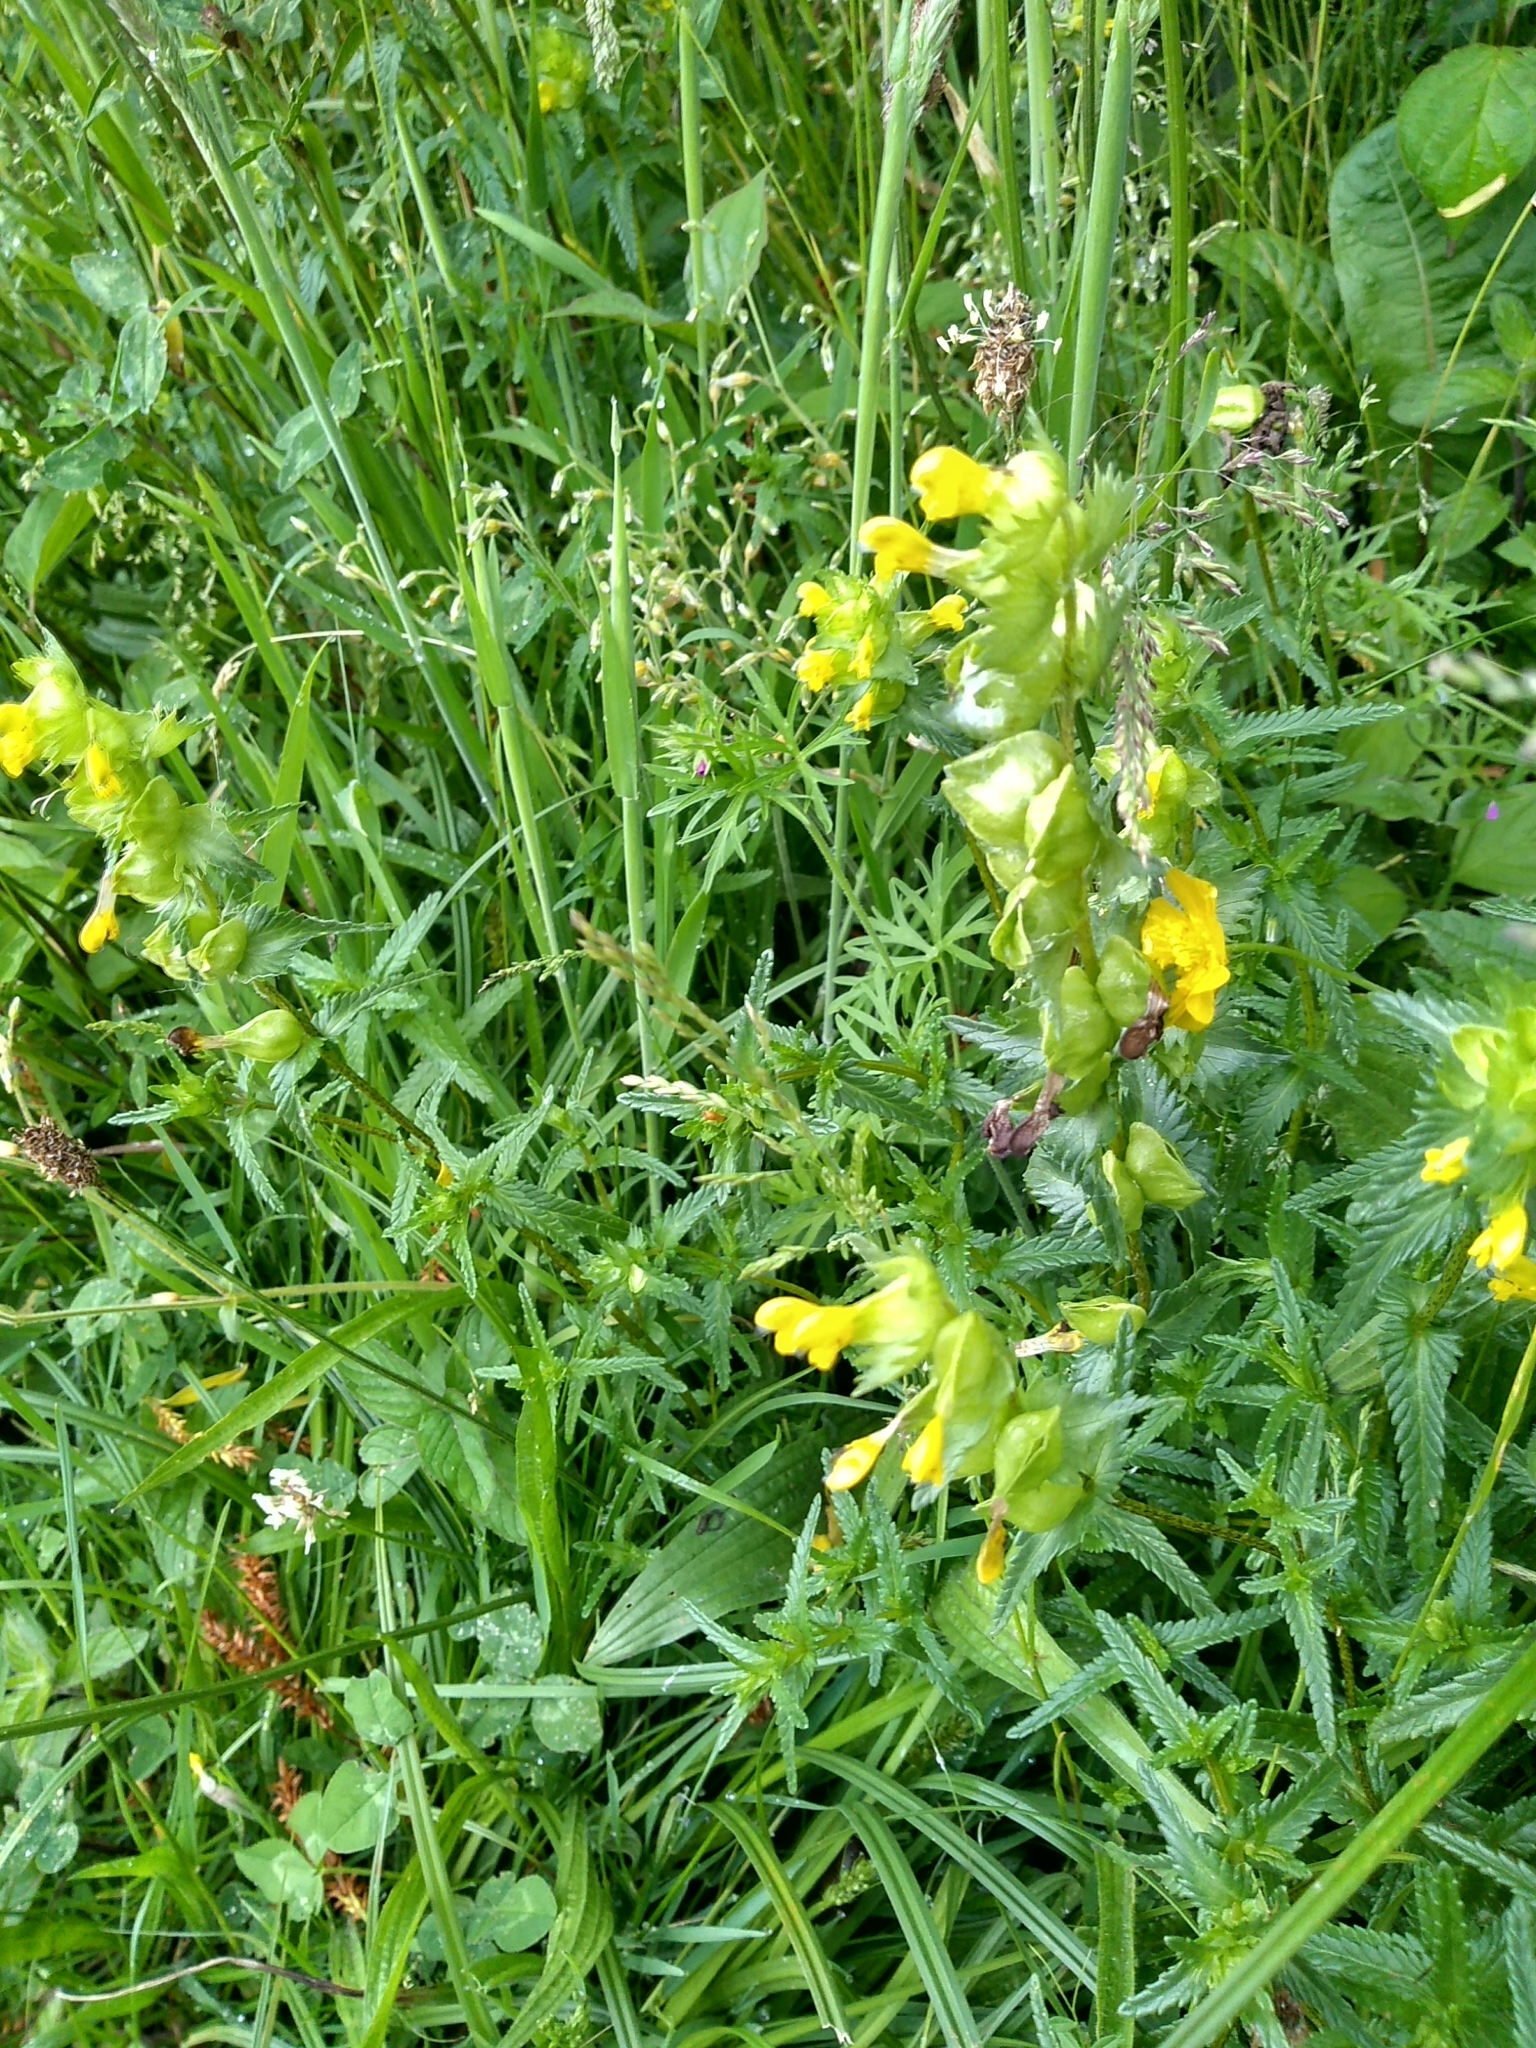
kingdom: Plantae
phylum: Tracheophyta
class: Magnoliopsida
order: Lamiales
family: Orobanchaceae
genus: Rhinanthus
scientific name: Rhinanthus minor
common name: Yellow-rattle
